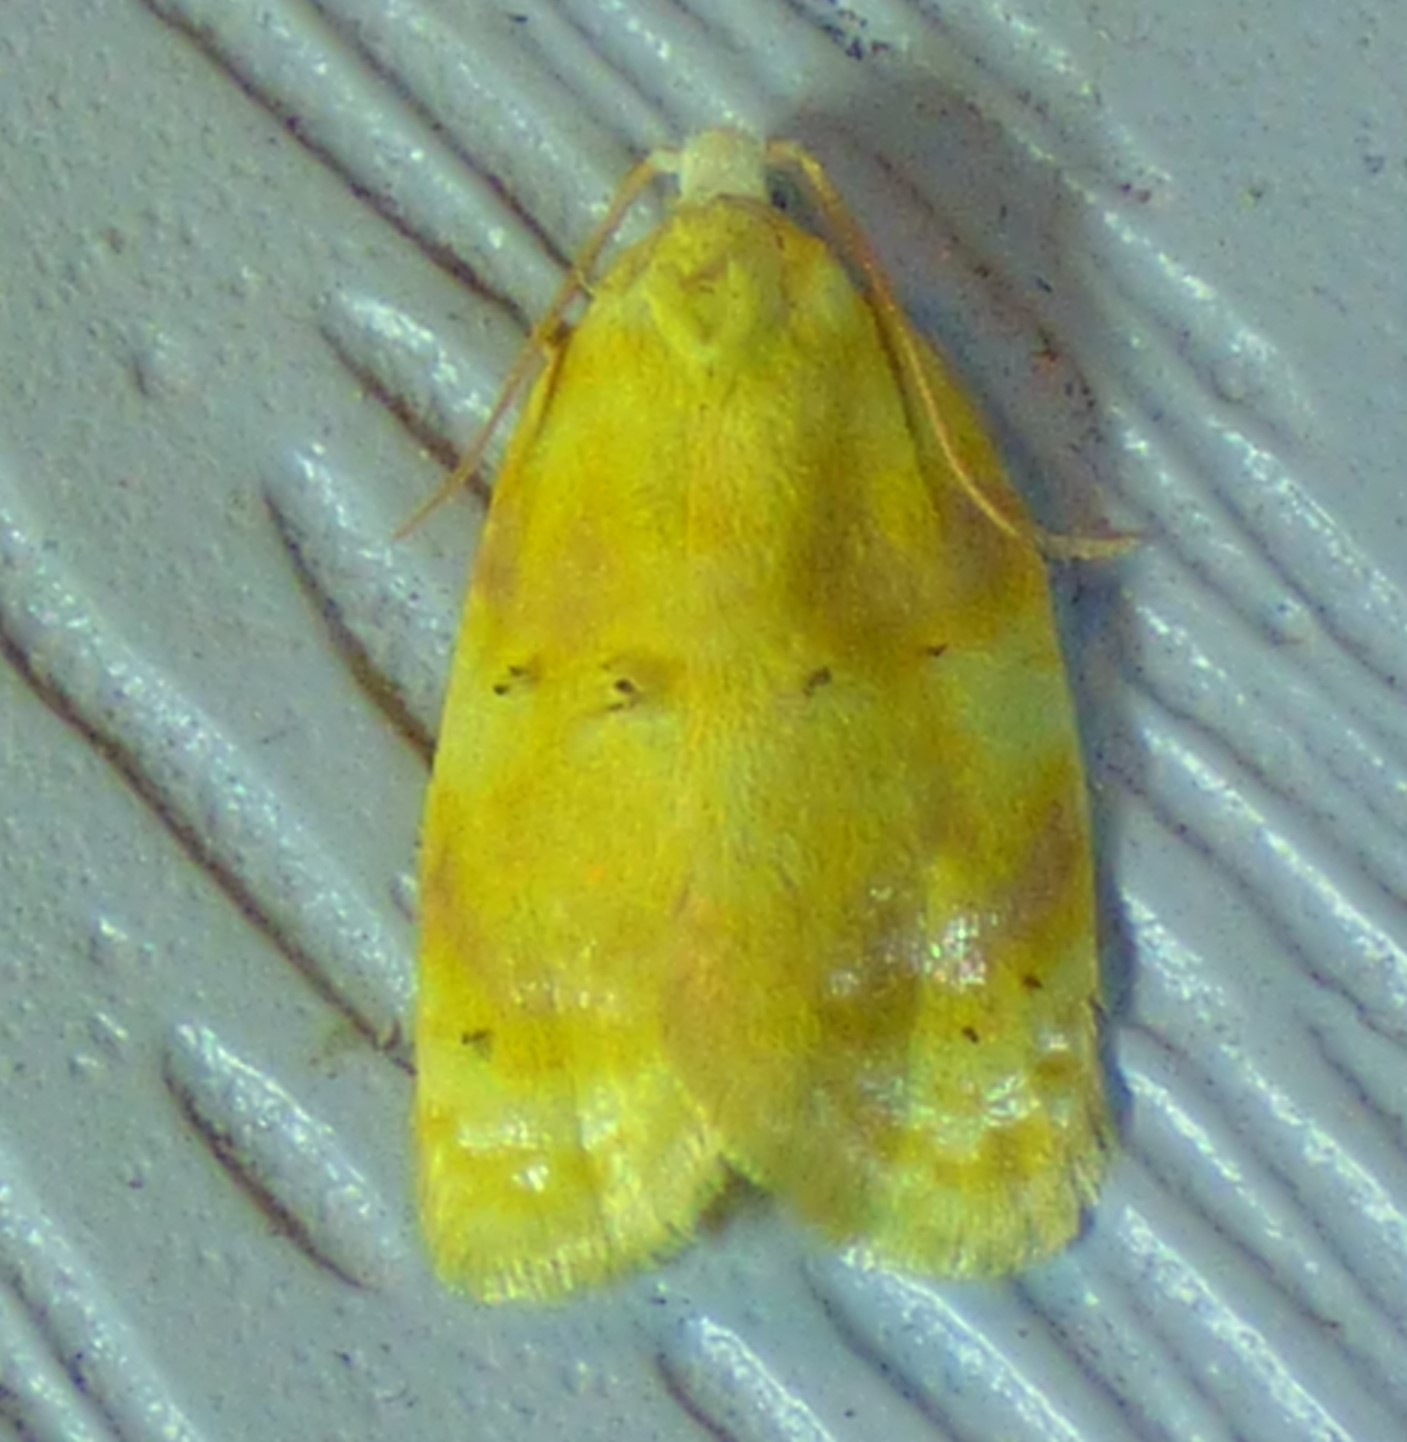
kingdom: Animalia
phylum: Arthropoda
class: Insecta
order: Lepidoptera
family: Tortricidae
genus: Acleris
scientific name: Acleris semipurpurana
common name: Oak leaftier moth
